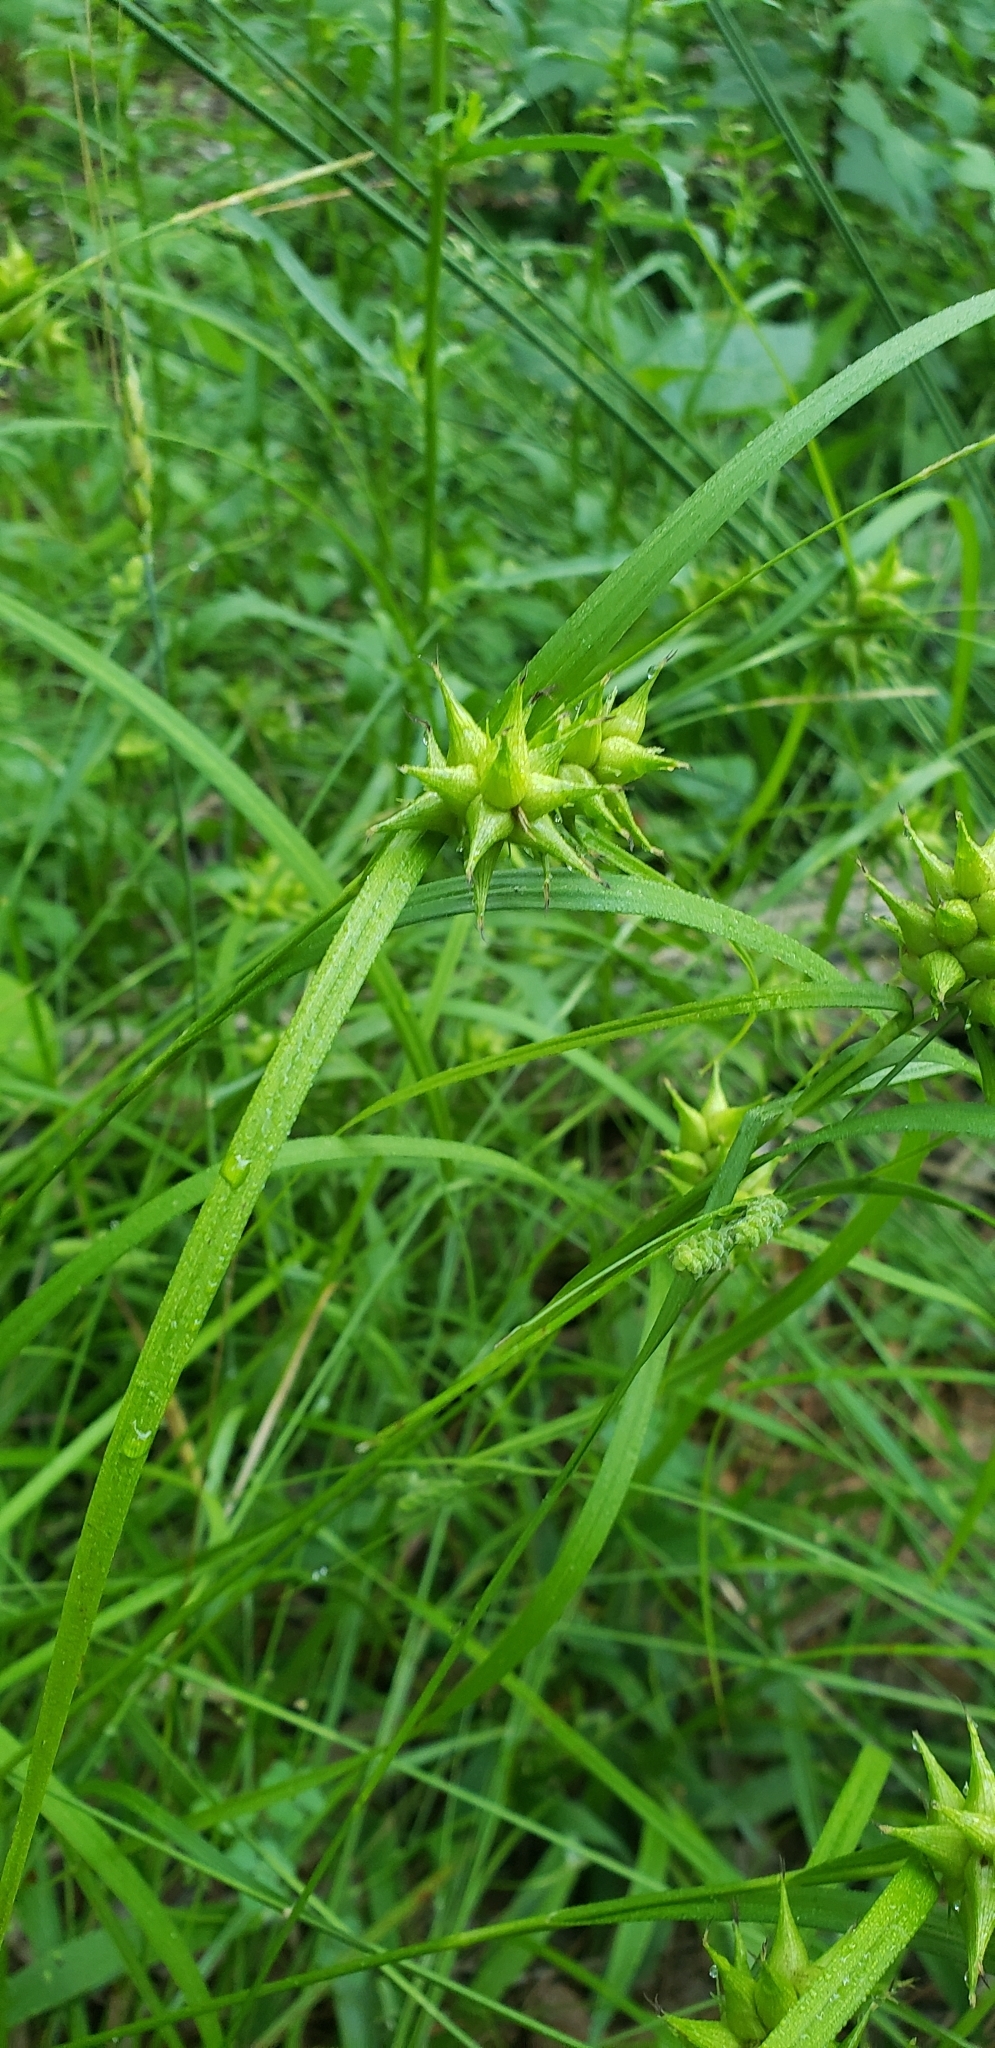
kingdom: Plantae
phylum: Tracheophyta
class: Liliopsida
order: Poales
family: Cyperaceae
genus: Carex
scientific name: Carex intumescens
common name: Greater bladder sedge
